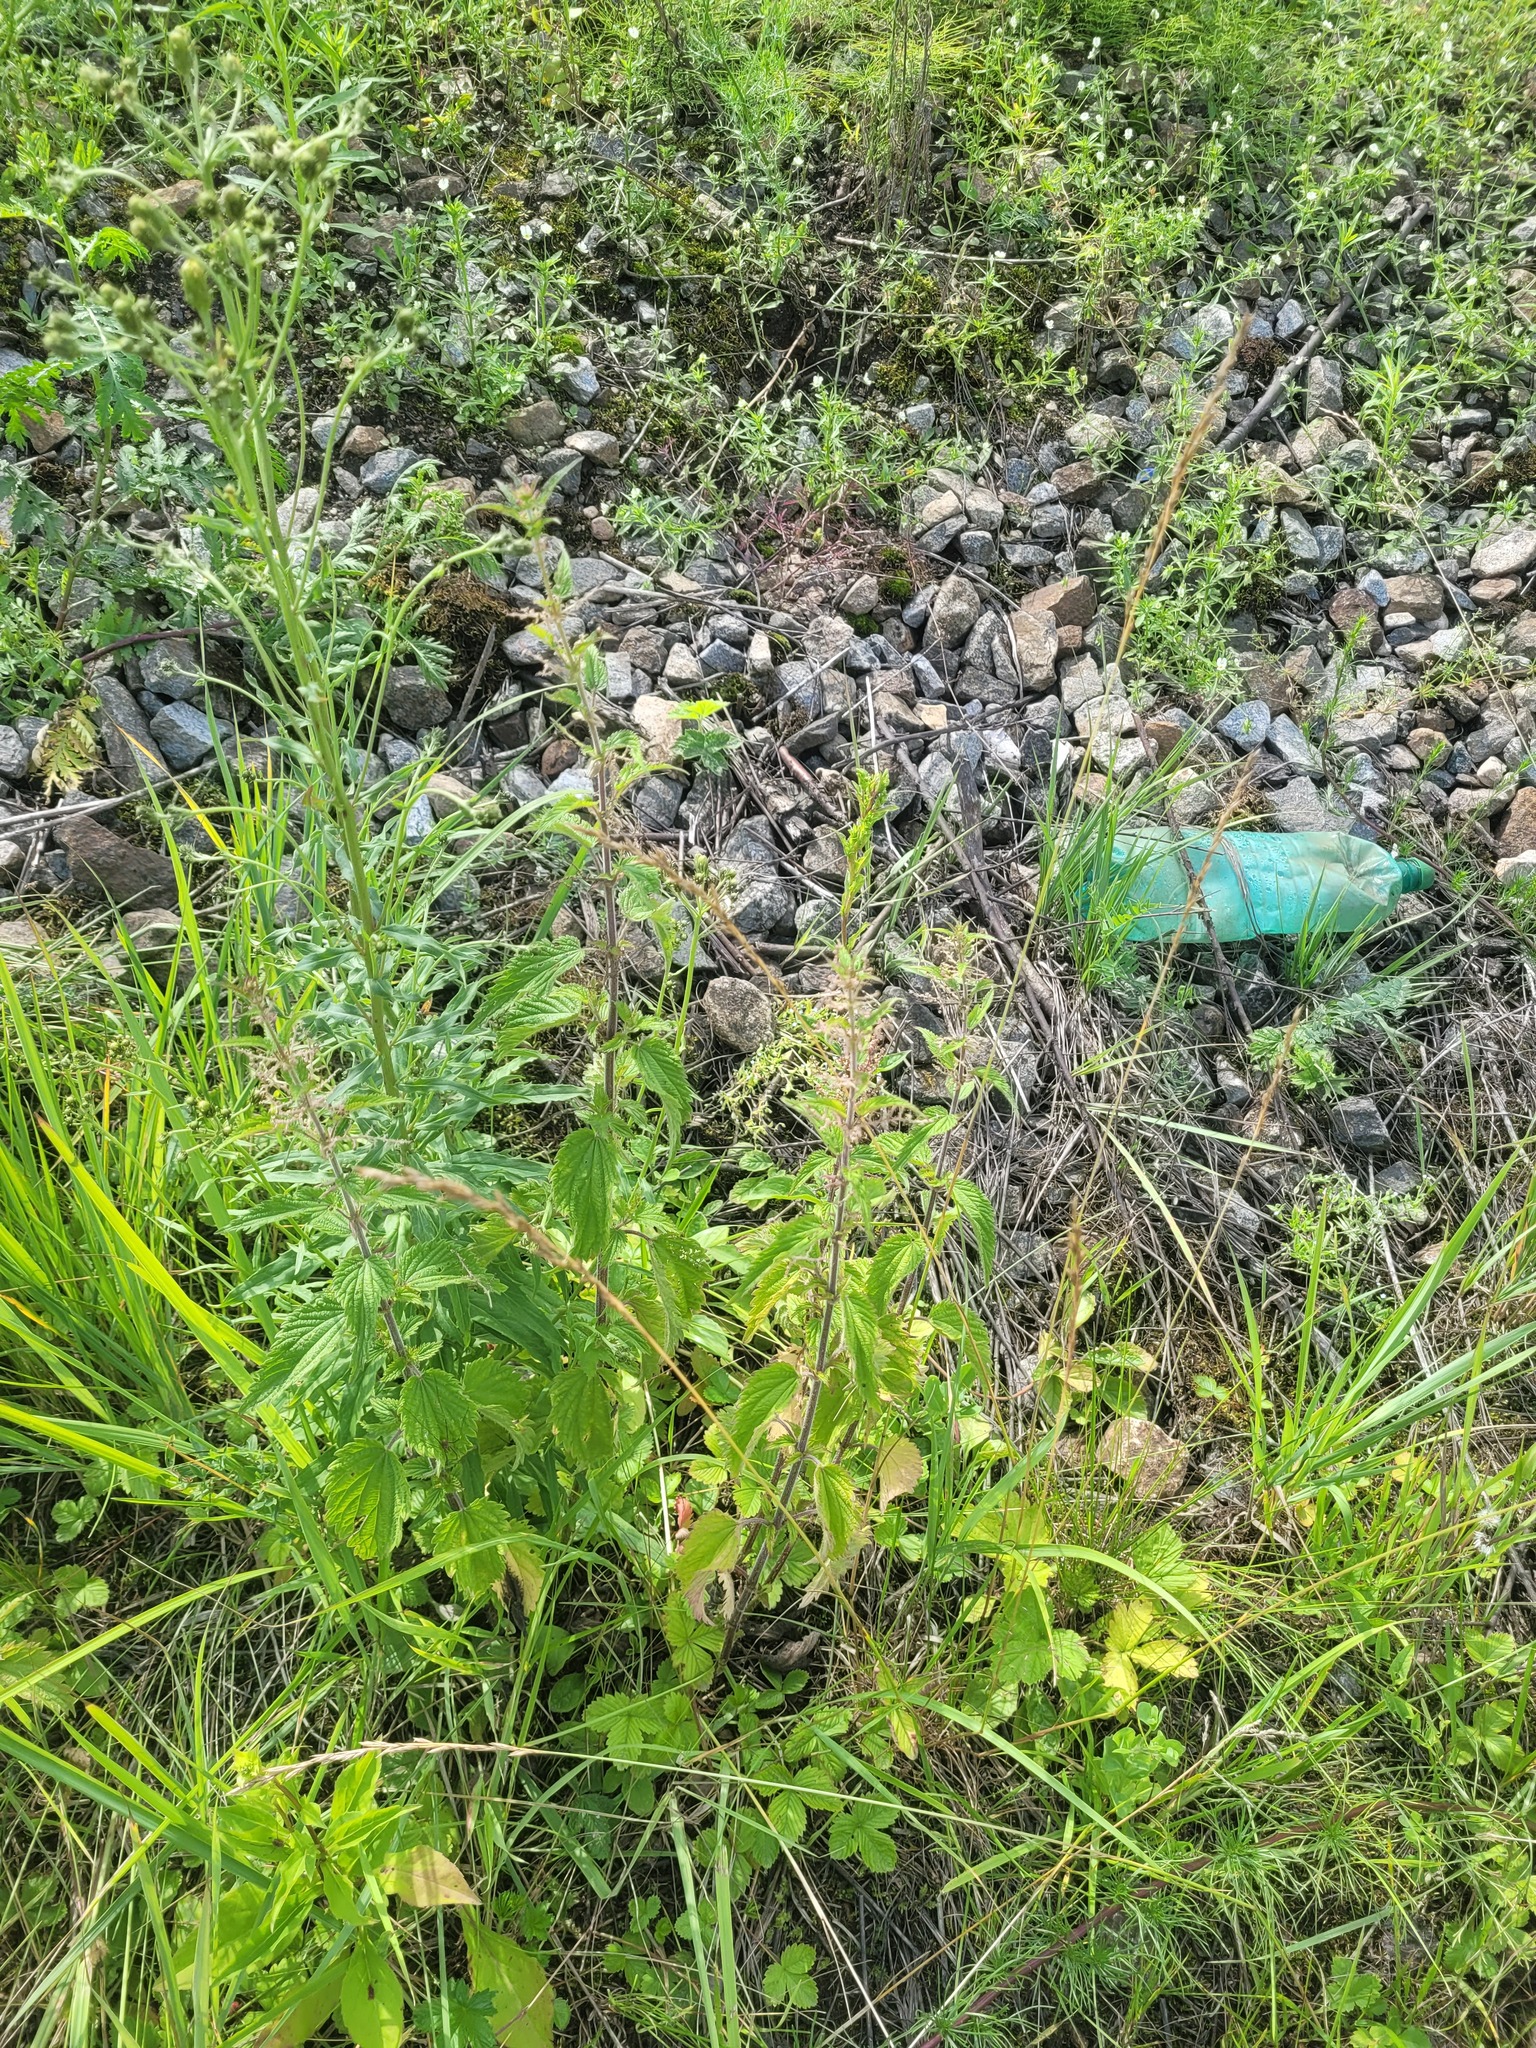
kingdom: Plantae
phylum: Tracheophyta
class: Magnoliopsida
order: Rosales
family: Urticaceae
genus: Urtica
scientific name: Urtica dioica
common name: Common nettle
